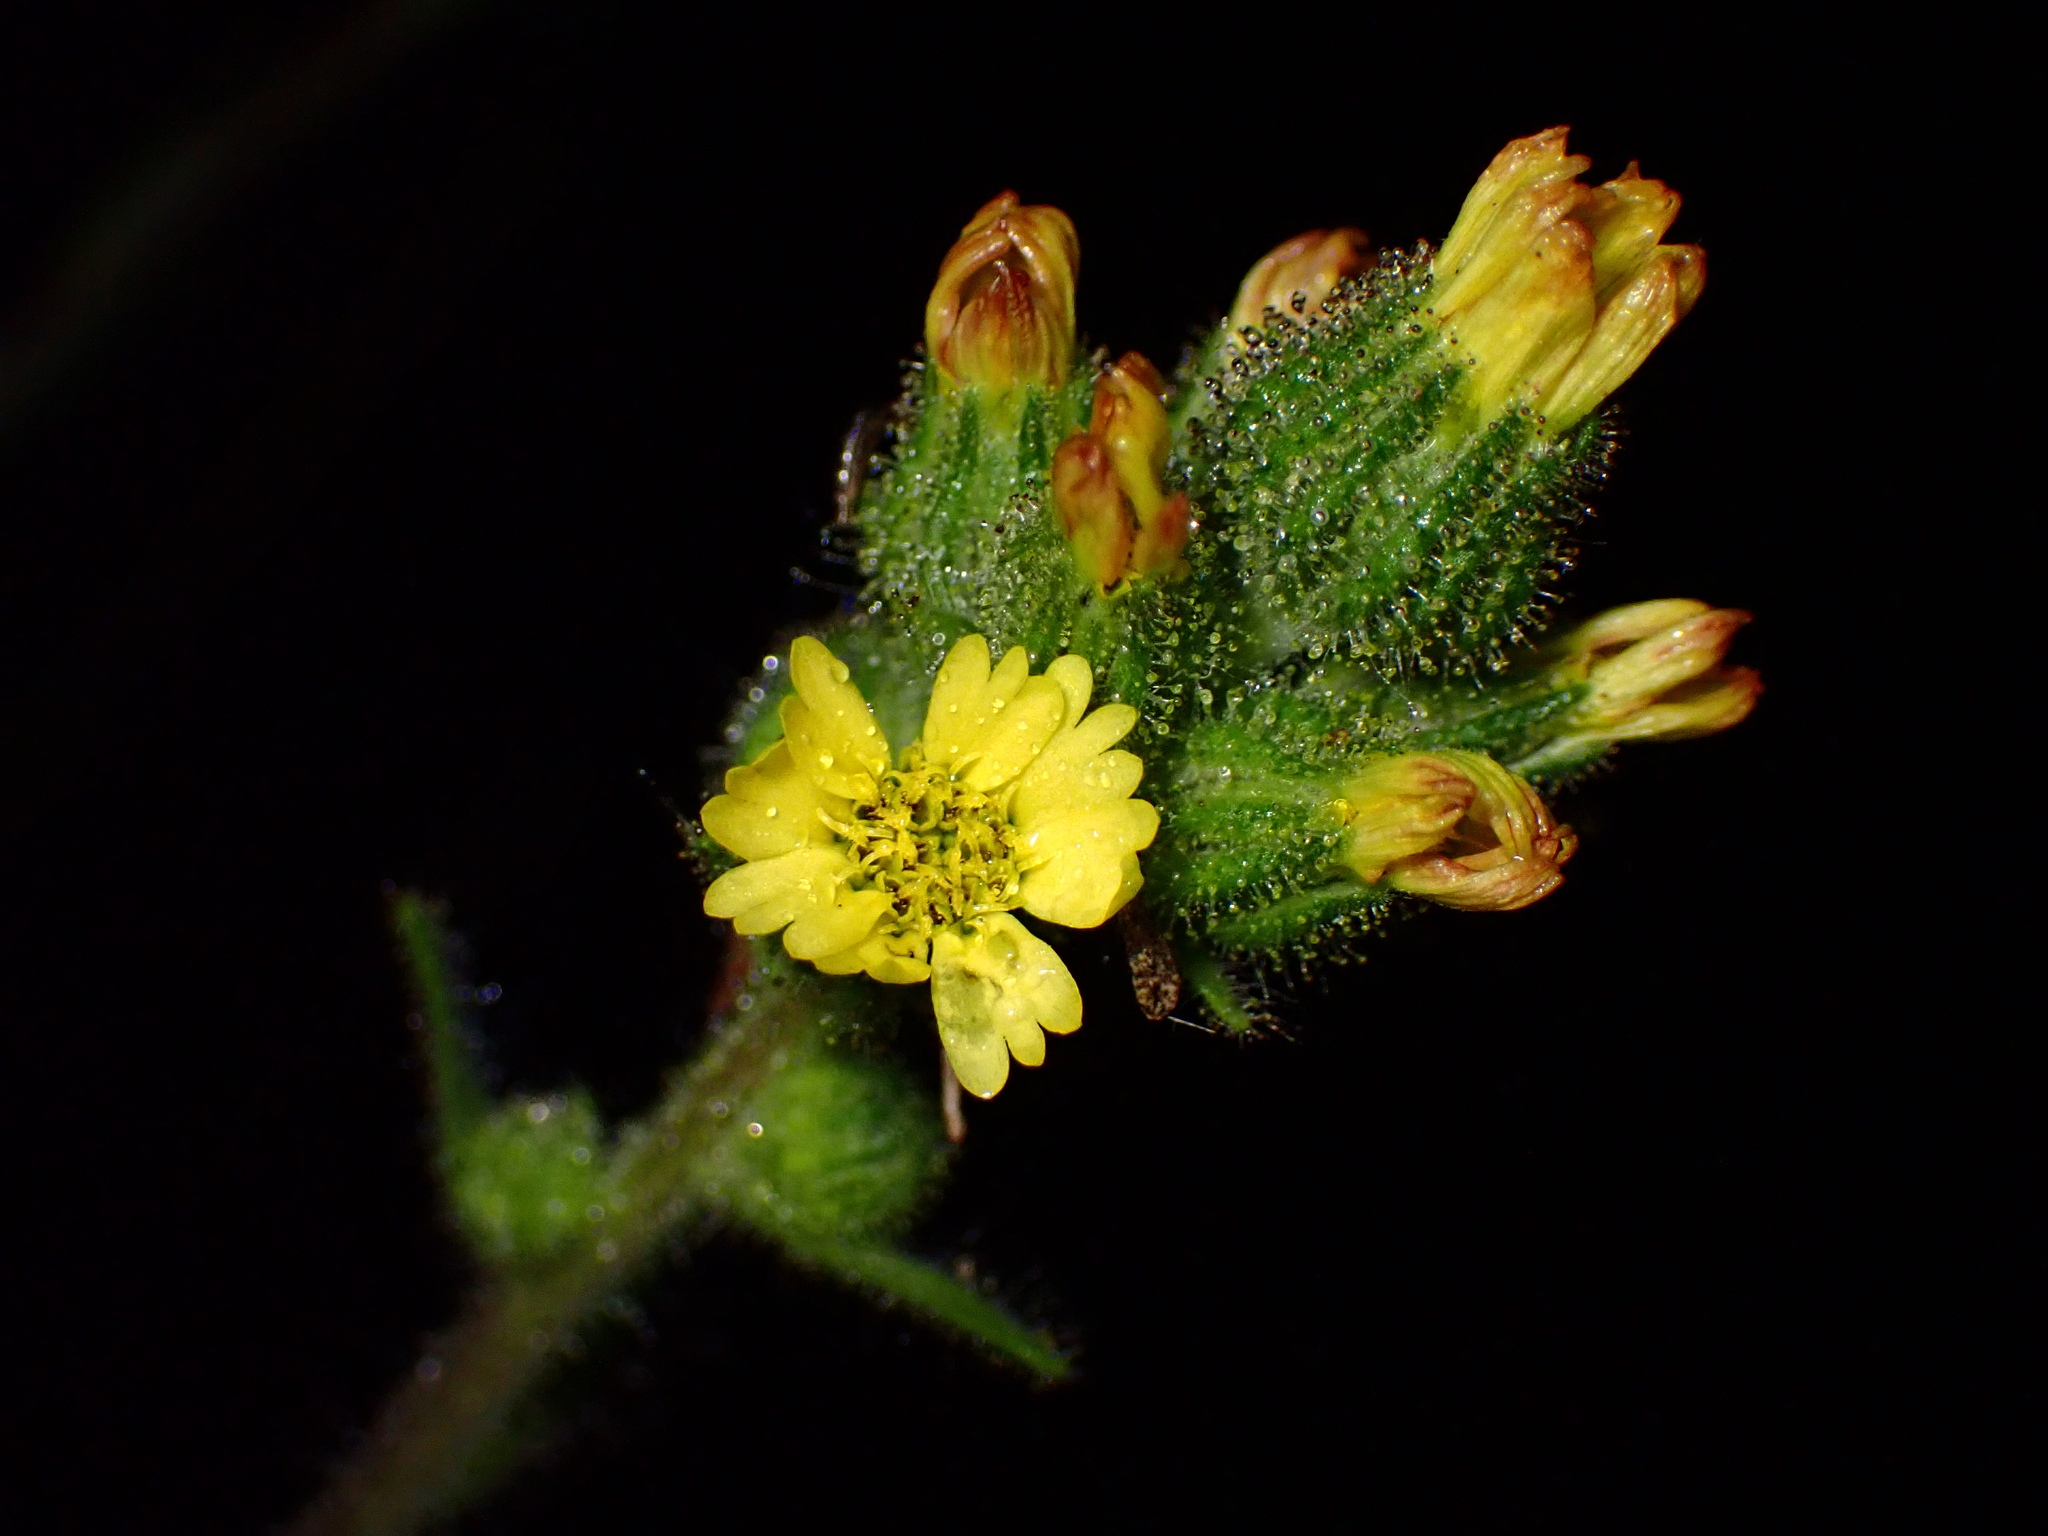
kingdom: Plantae
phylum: Tracheophyta
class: Magnoliopsida
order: Asterales
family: Asteraceae
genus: Madia
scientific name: Madia sativa
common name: Coast tarweed
